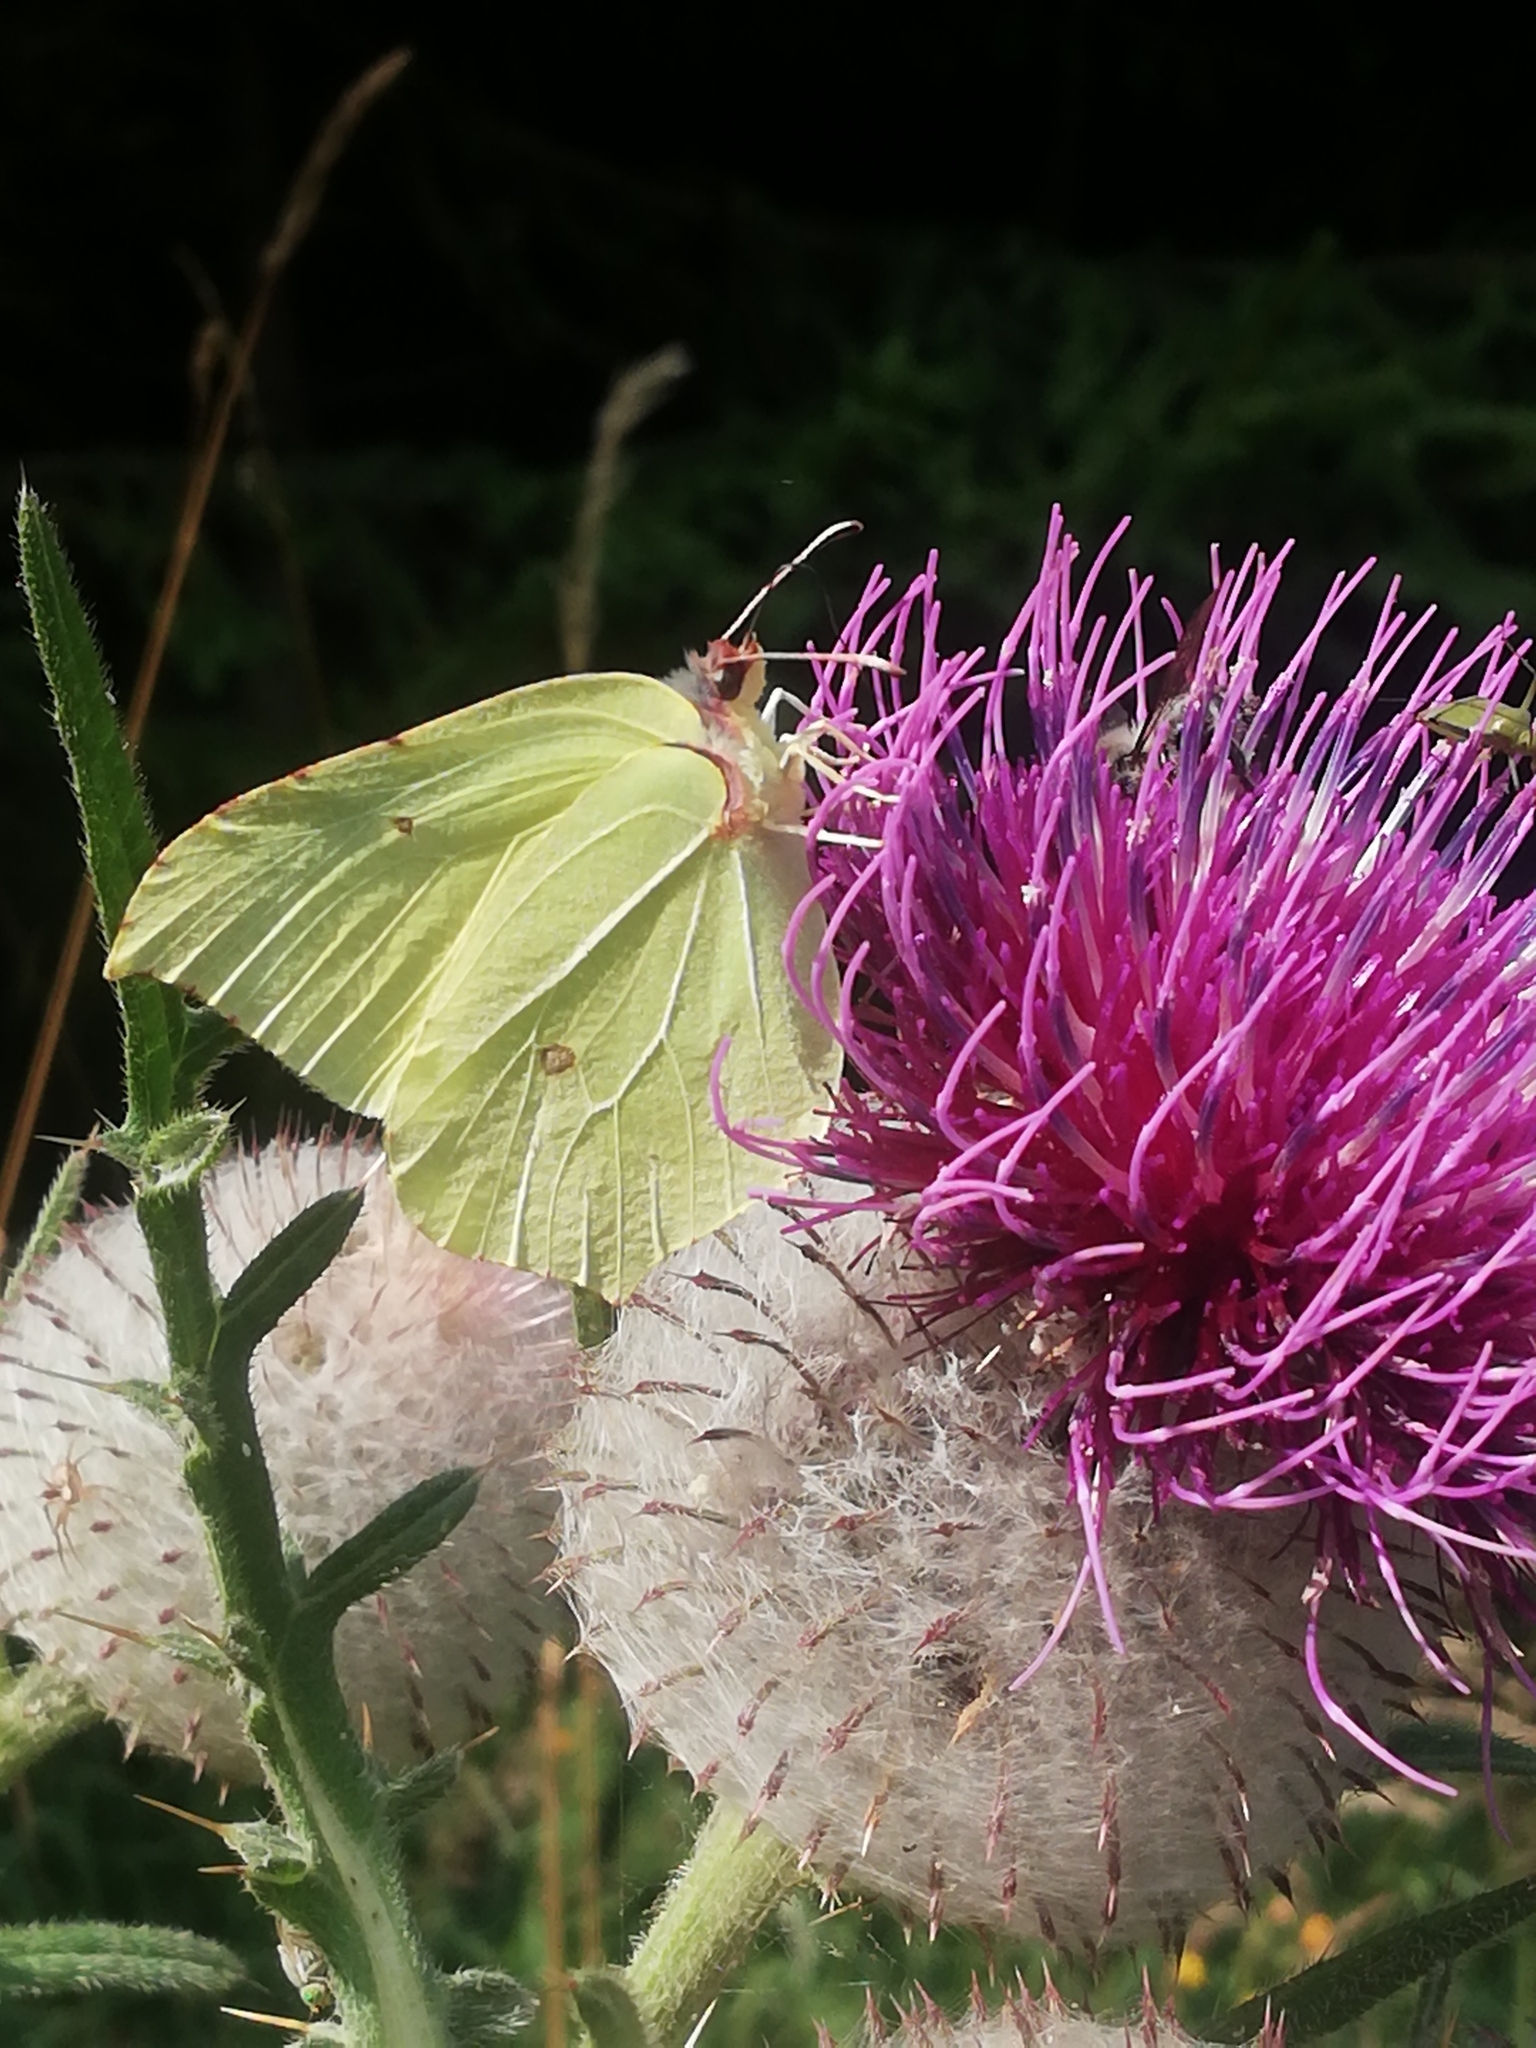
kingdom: Animalia
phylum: Arthropoda
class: Insecta
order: Lepidoptera
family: Pieridae
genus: Gonepteryx
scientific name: Gonepteryx rhamni
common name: Brimstone
